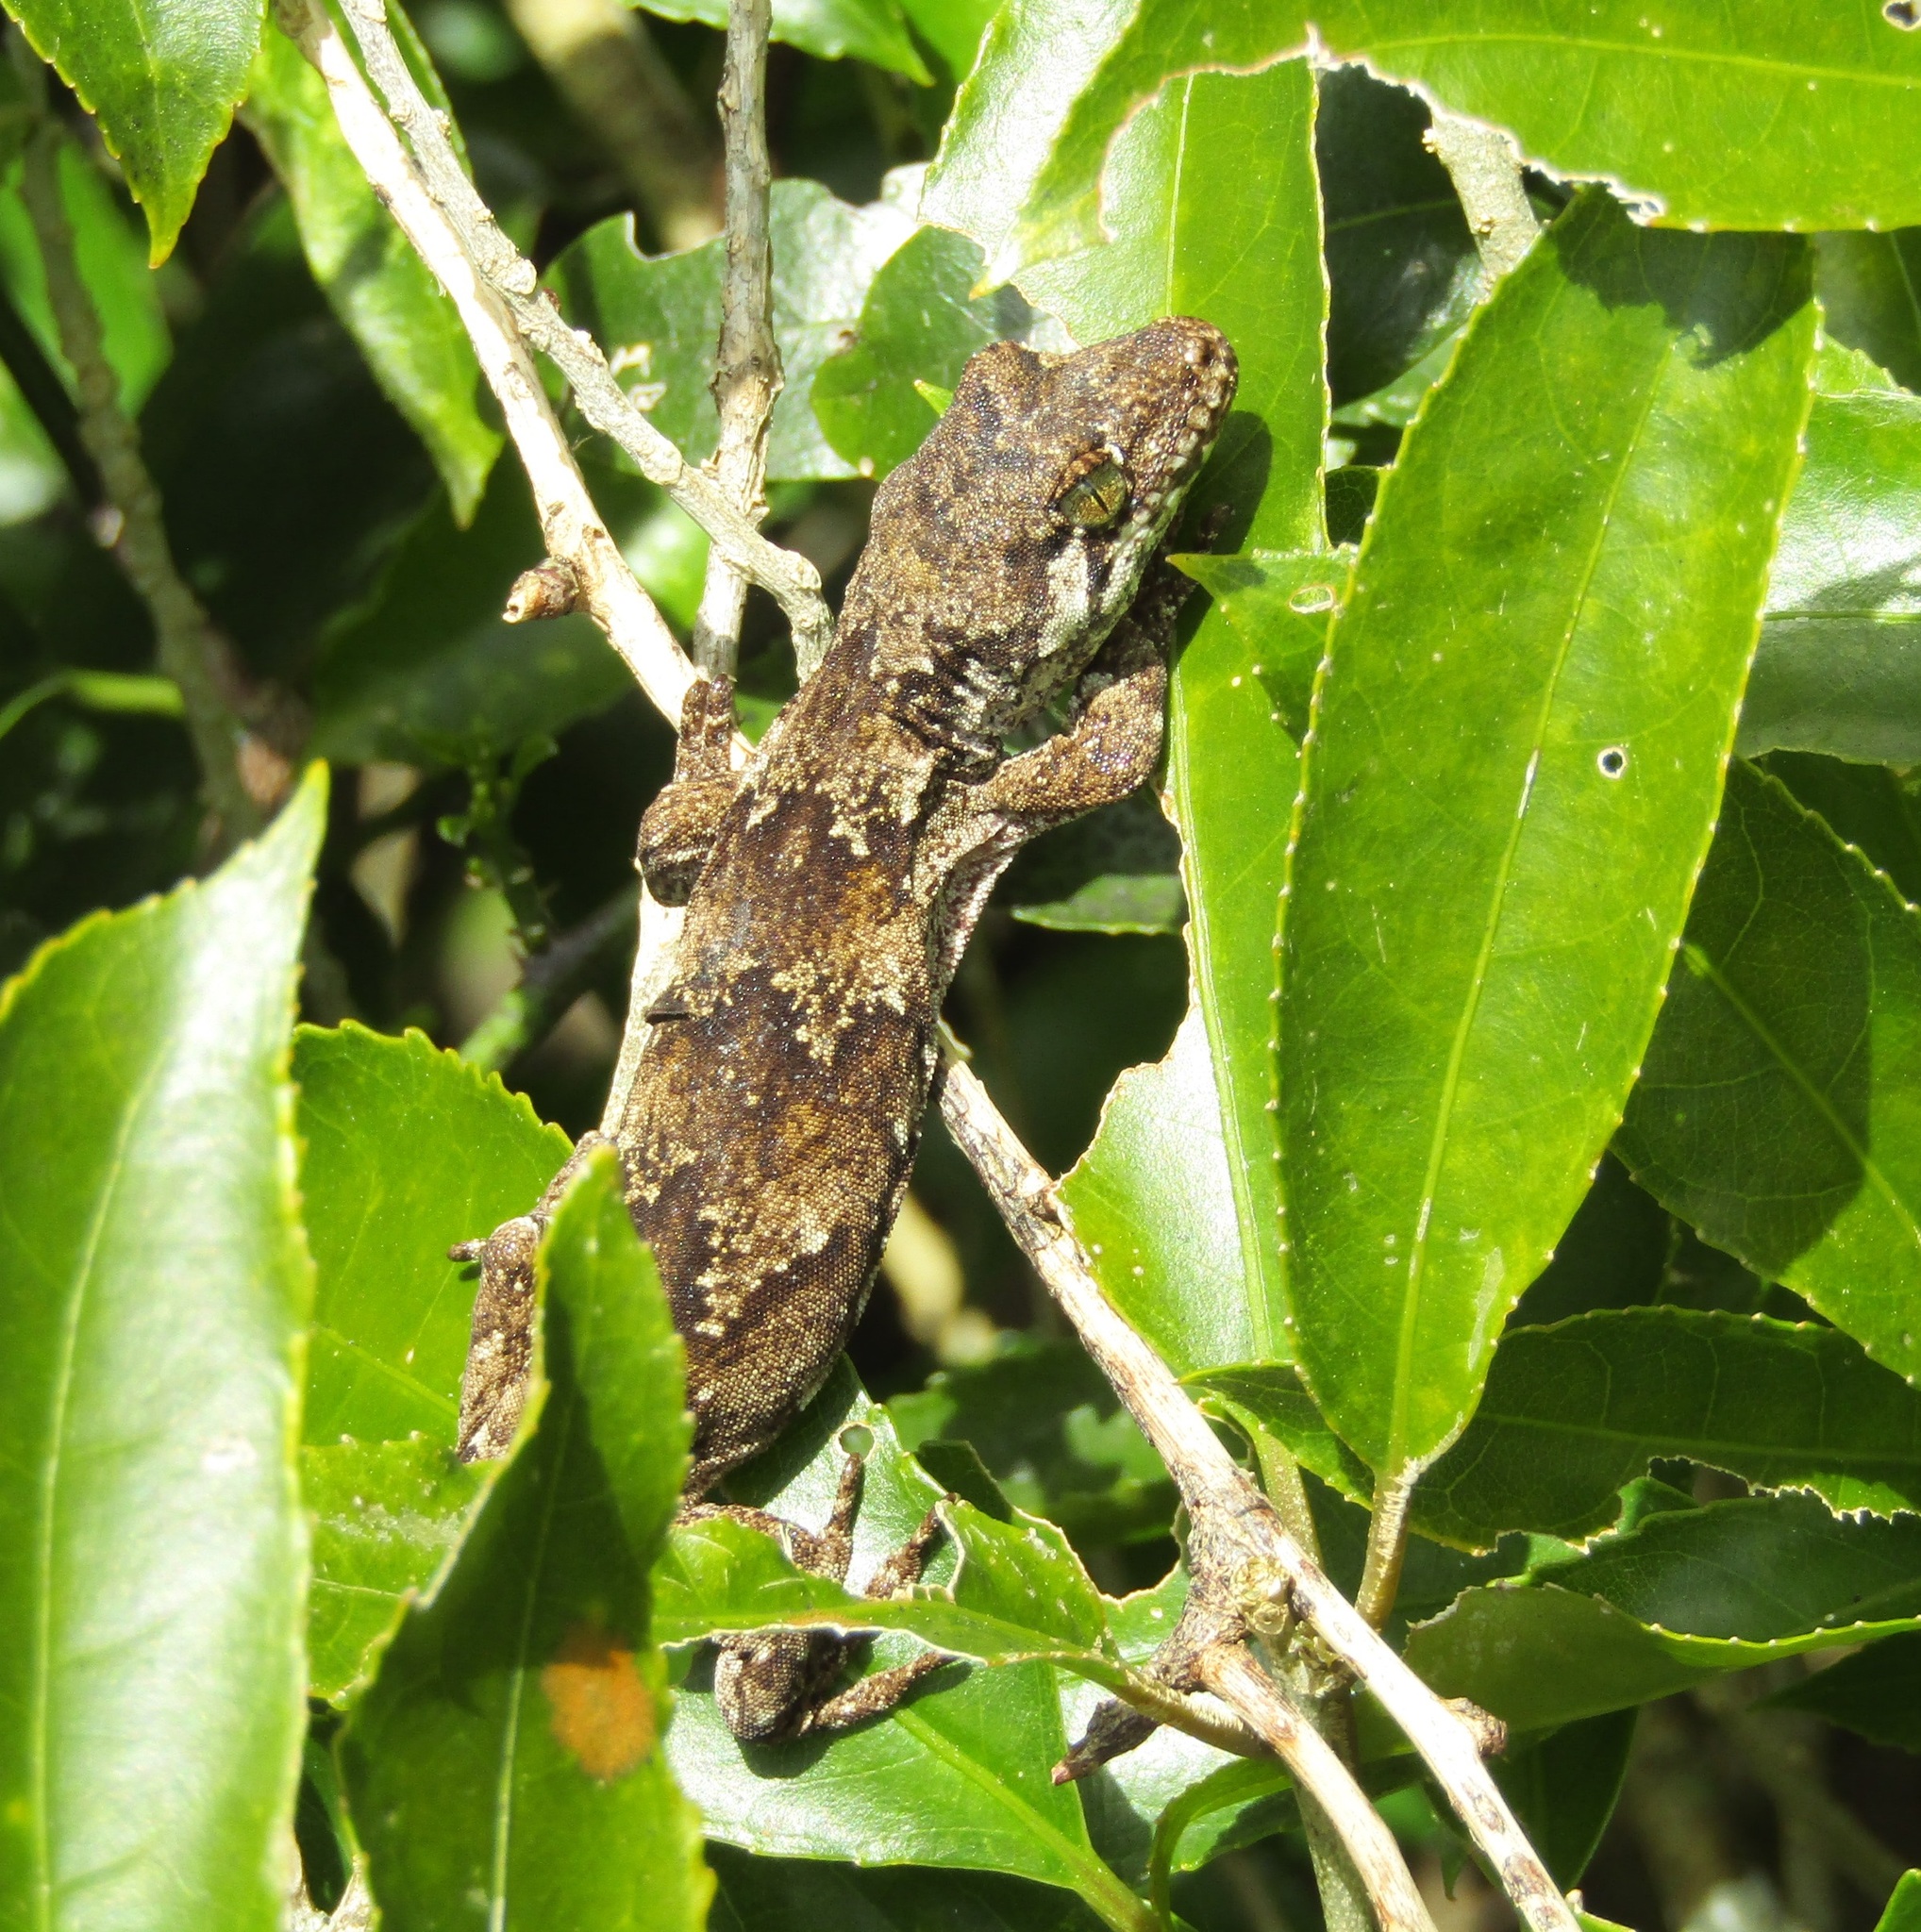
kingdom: Animalia
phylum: Chordata
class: Squamata
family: Diplodactylidae
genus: Mokopirirakau
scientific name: Mokopirirakau
